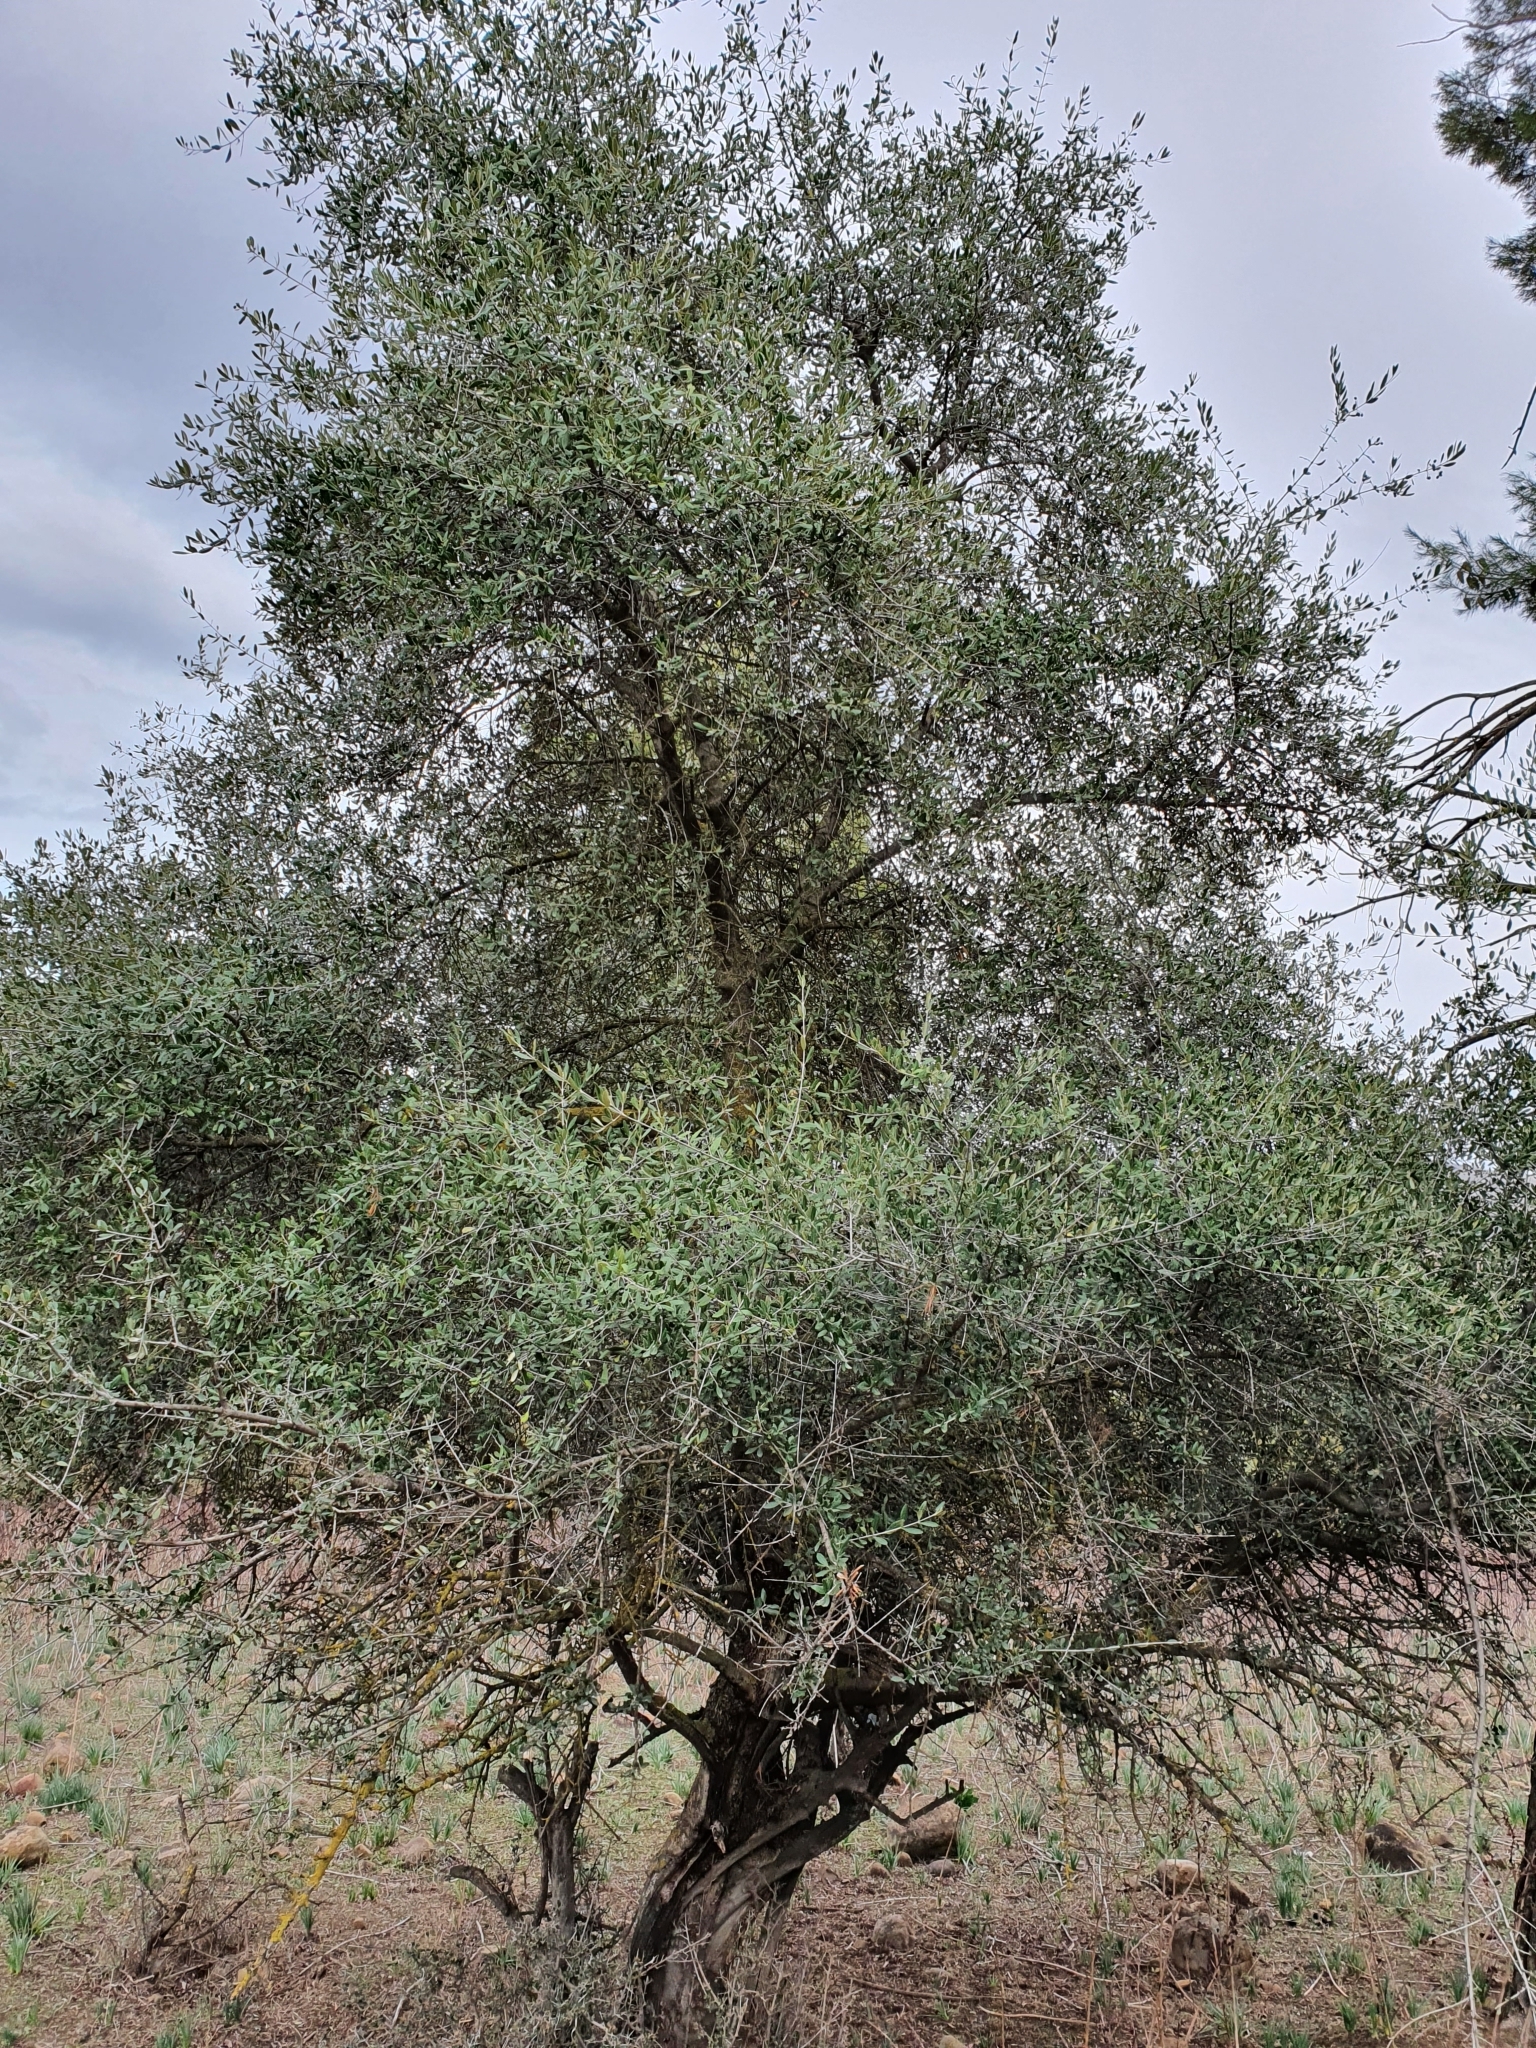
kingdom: Plantae
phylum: Tracheophyta
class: Magnoliopsida
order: Lamiales
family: Oleaceae
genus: Olea
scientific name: Olea europaea
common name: Olive
